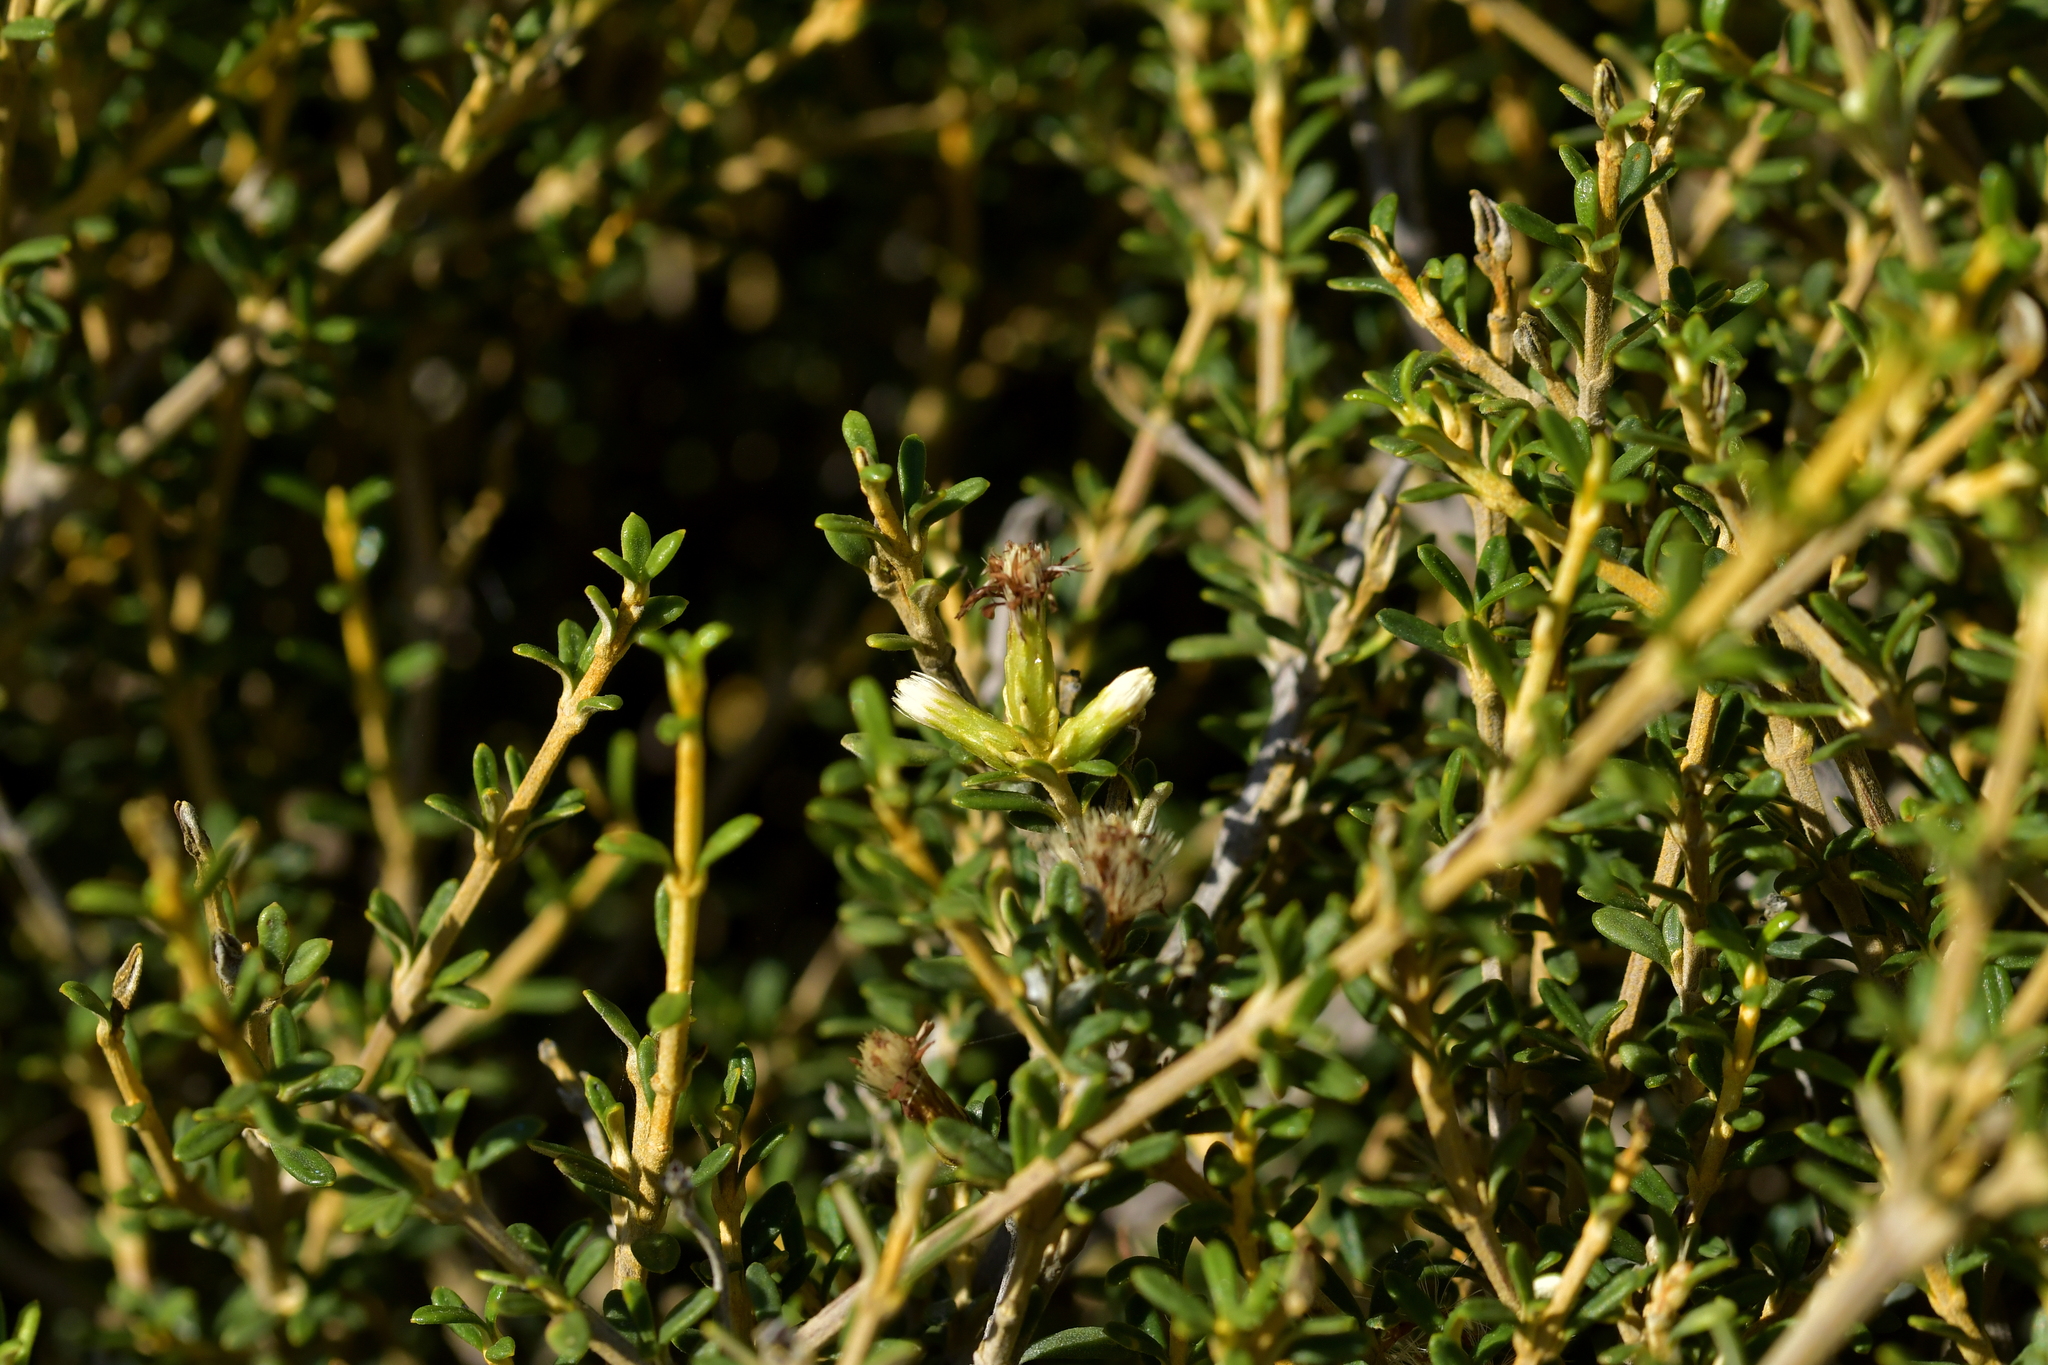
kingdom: Plantae
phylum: Tracheophyta
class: Magnoliopsida
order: Asterales
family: Asteraceae
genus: Olearia
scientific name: Olearia solandri
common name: Coastal daisybush
